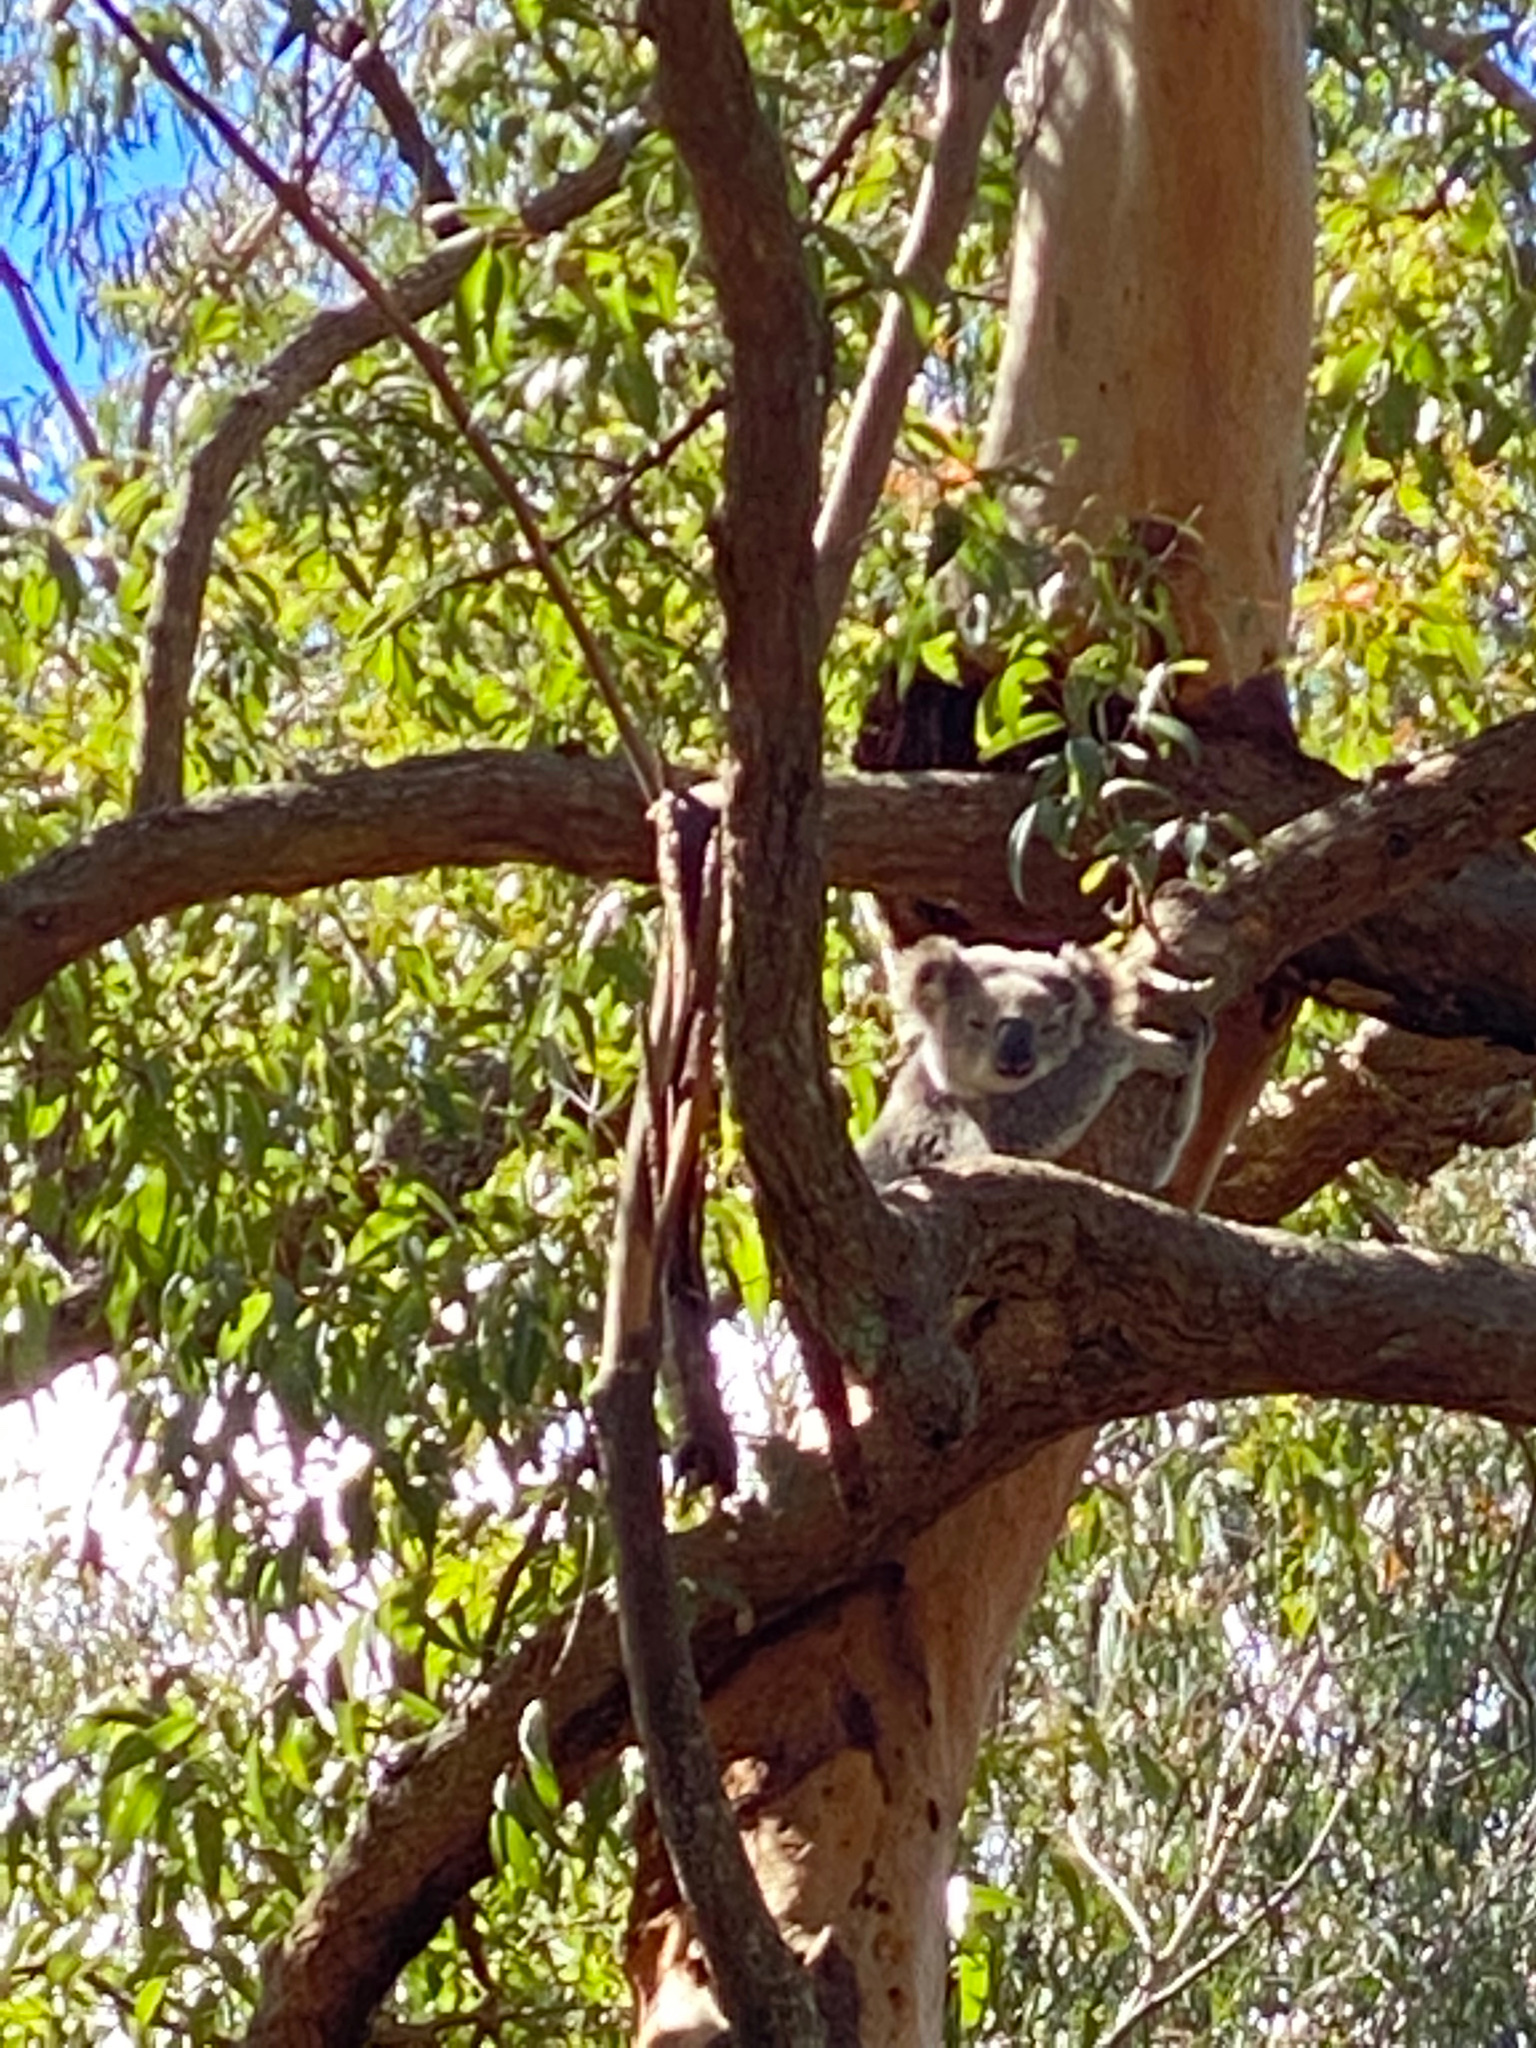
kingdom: Animalia
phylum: Chordata
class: Mammalia
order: Diprotodontia
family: Phascolarctidae
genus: Phascolarctos
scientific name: Phascolarctos cinereus
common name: Koala
